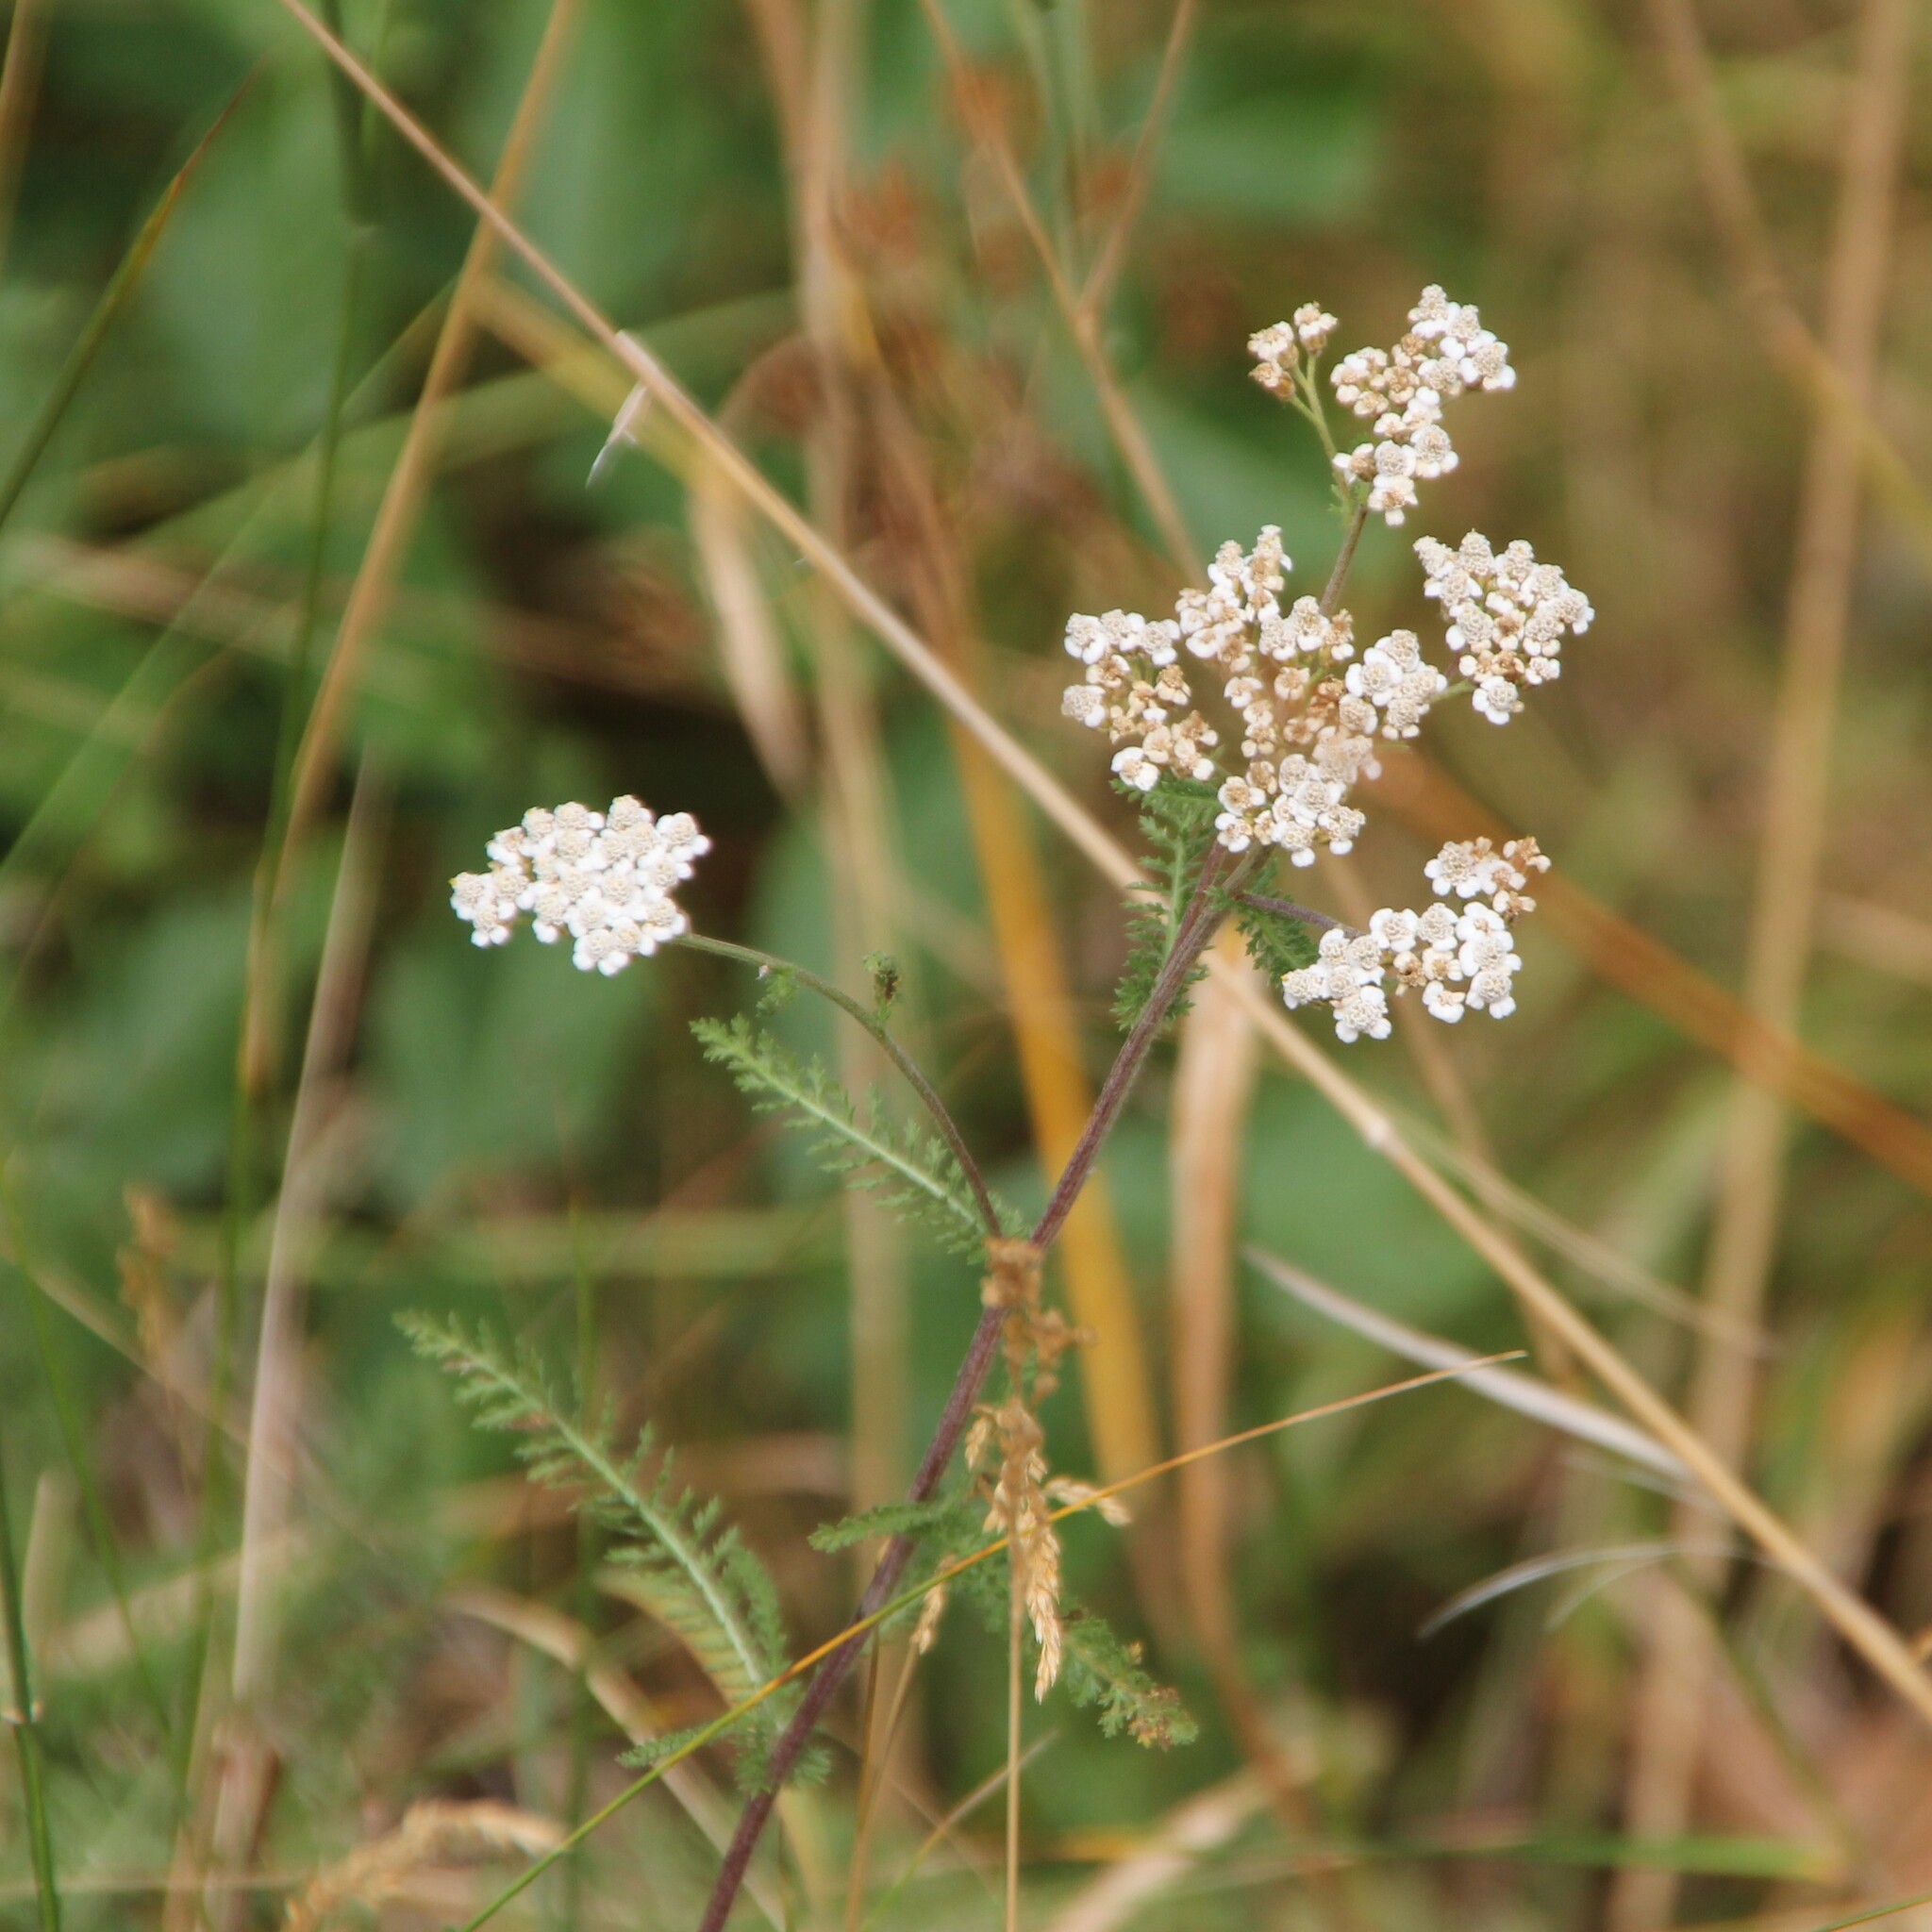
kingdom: Plantae
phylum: Tracheophyta
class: Magnoliopsida
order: Asterales
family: Asteraceae
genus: Achillea
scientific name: Achillea millefolium
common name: Yarrow
